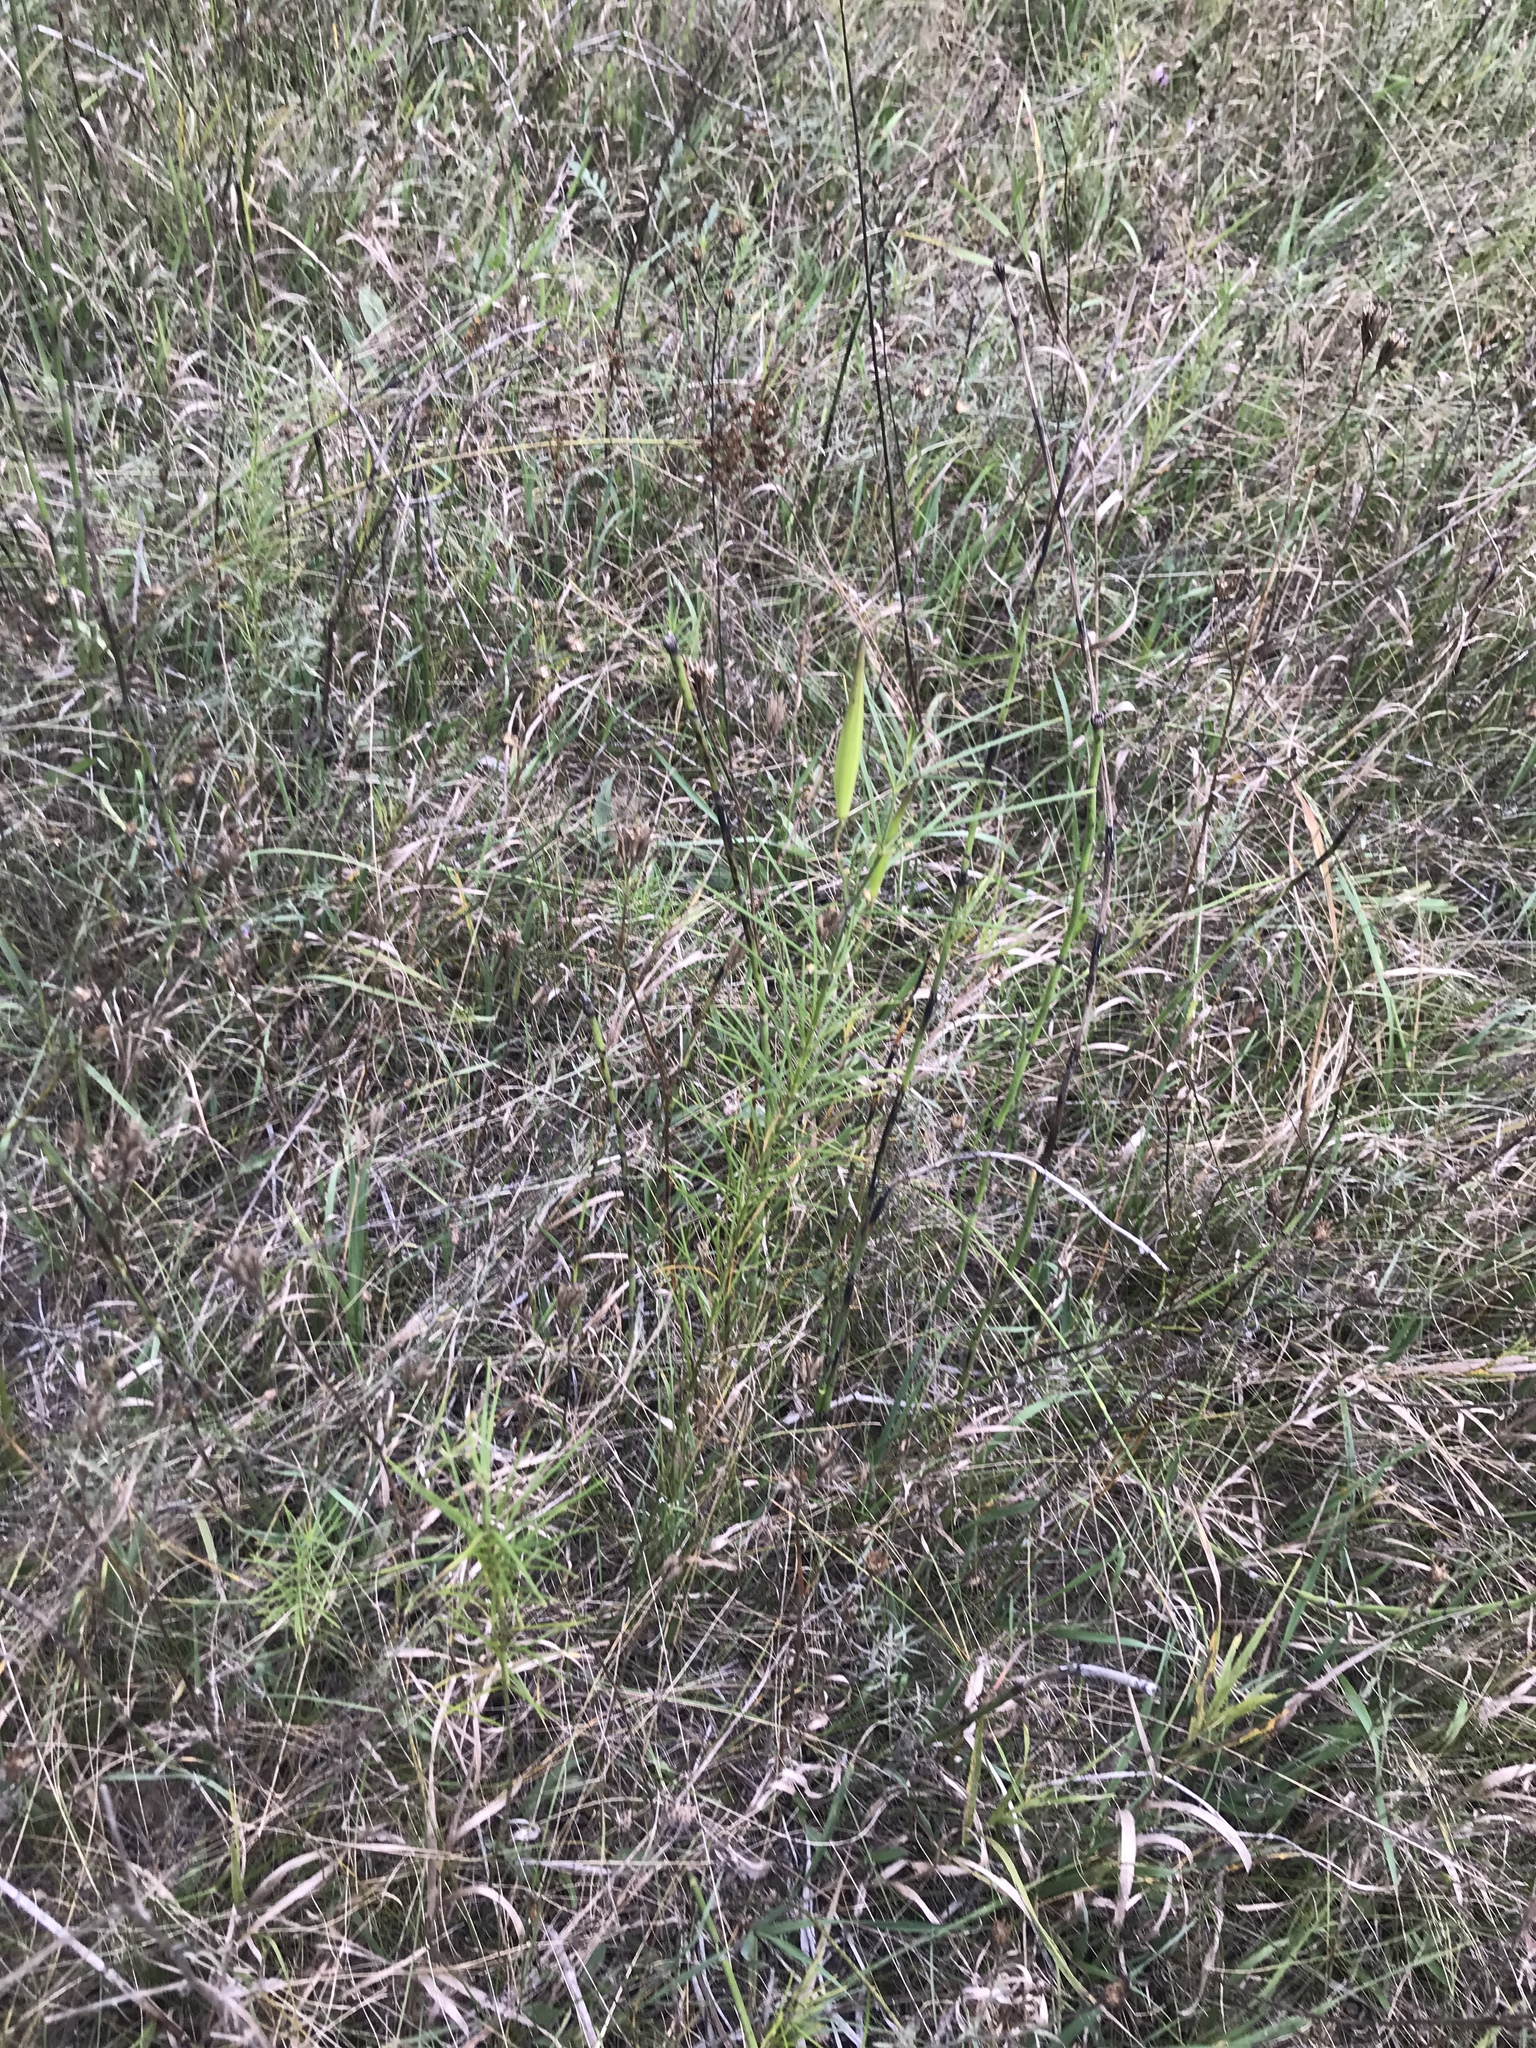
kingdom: Plantae
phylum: Tracheophyta
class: Magnoliopsida
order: Gentianales
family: Apocynaceae
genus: Asclepias
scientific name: Asclepias verticillata
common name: Eastern whorled milkweed
